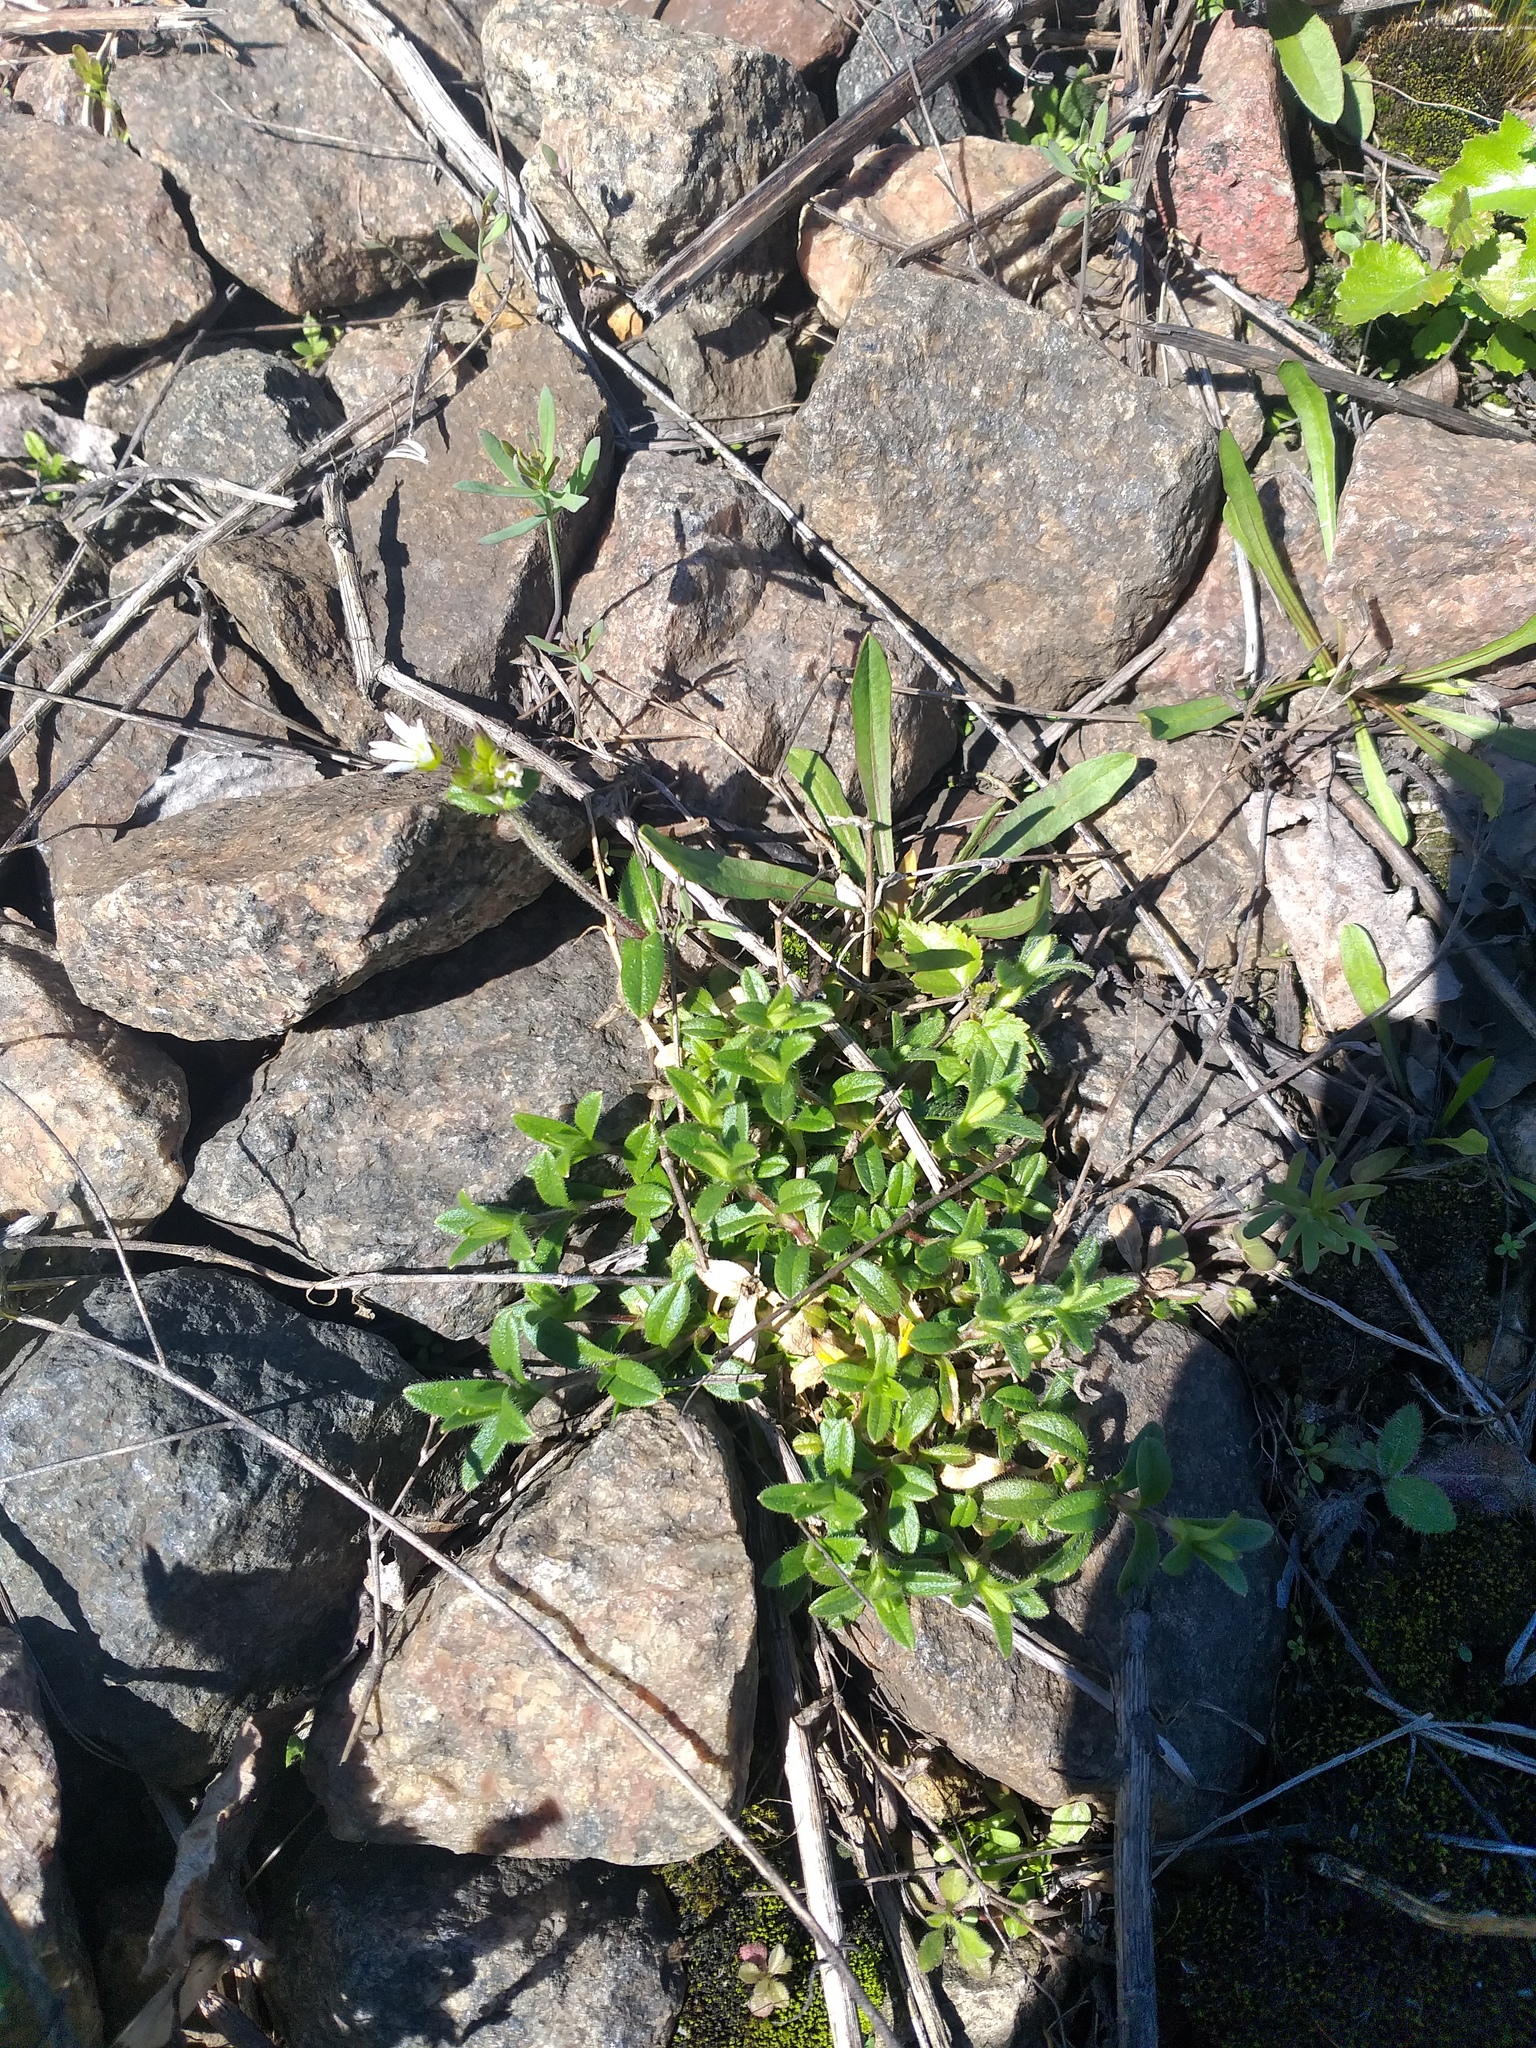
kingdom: Plantae
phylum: Tracheophyta
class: Magnoliopsida
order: Caryophyllales
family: Caryophyllaceae
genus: Cerastium
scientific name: Cerastium holosteoides
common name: Big chickweed
